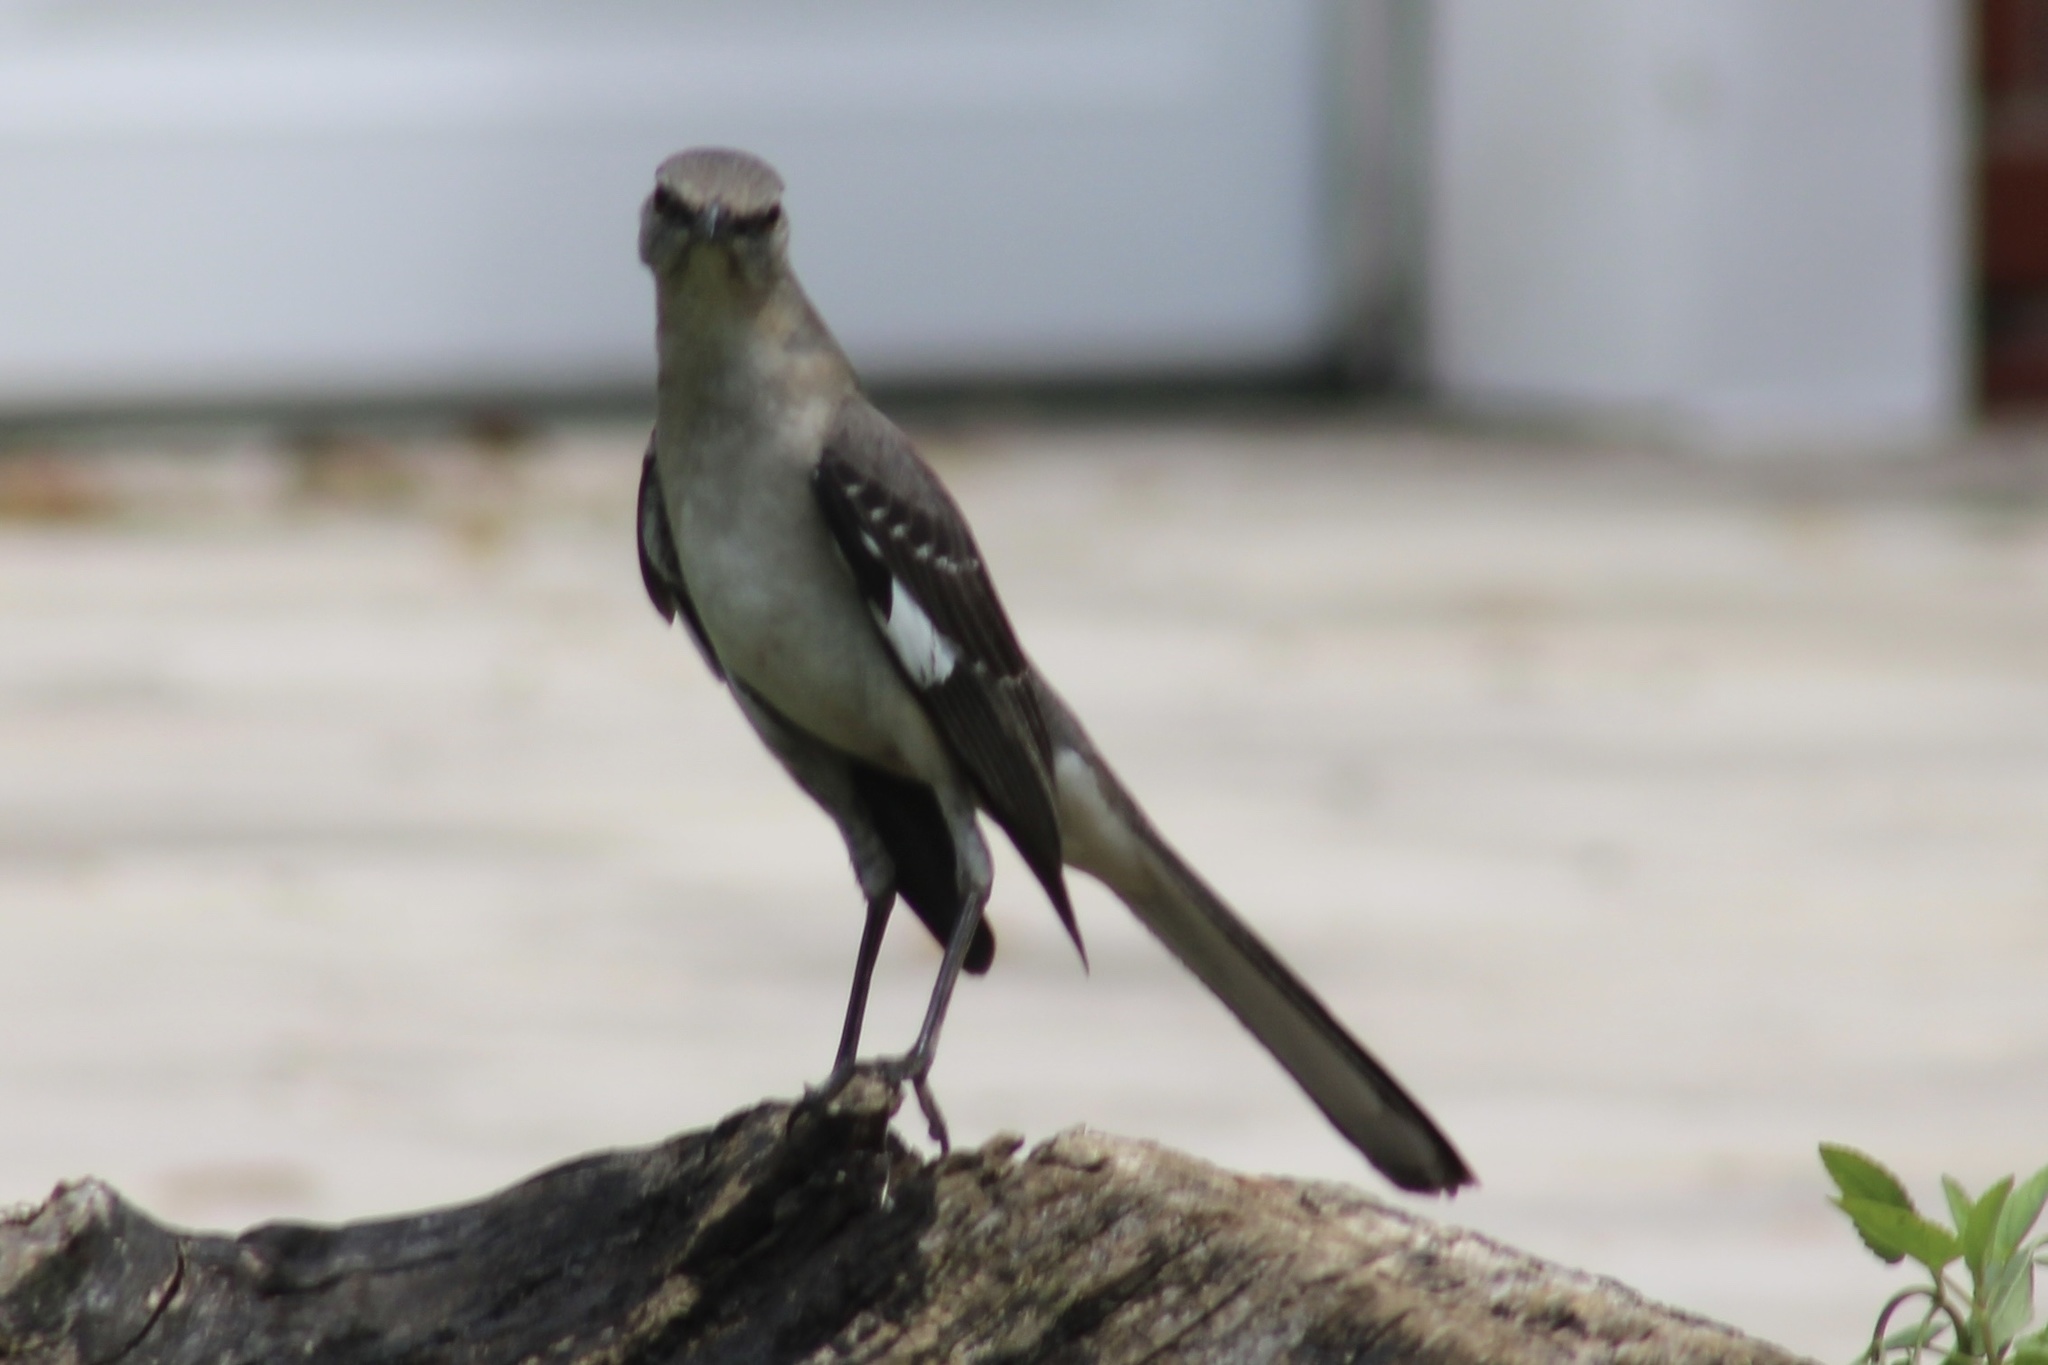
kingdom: Animalia
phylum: Chordata
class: Aves
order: Passeriformes
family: Mimidae
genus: Mimus
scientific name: Mimus polyglottos
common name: Northern mockingbird
